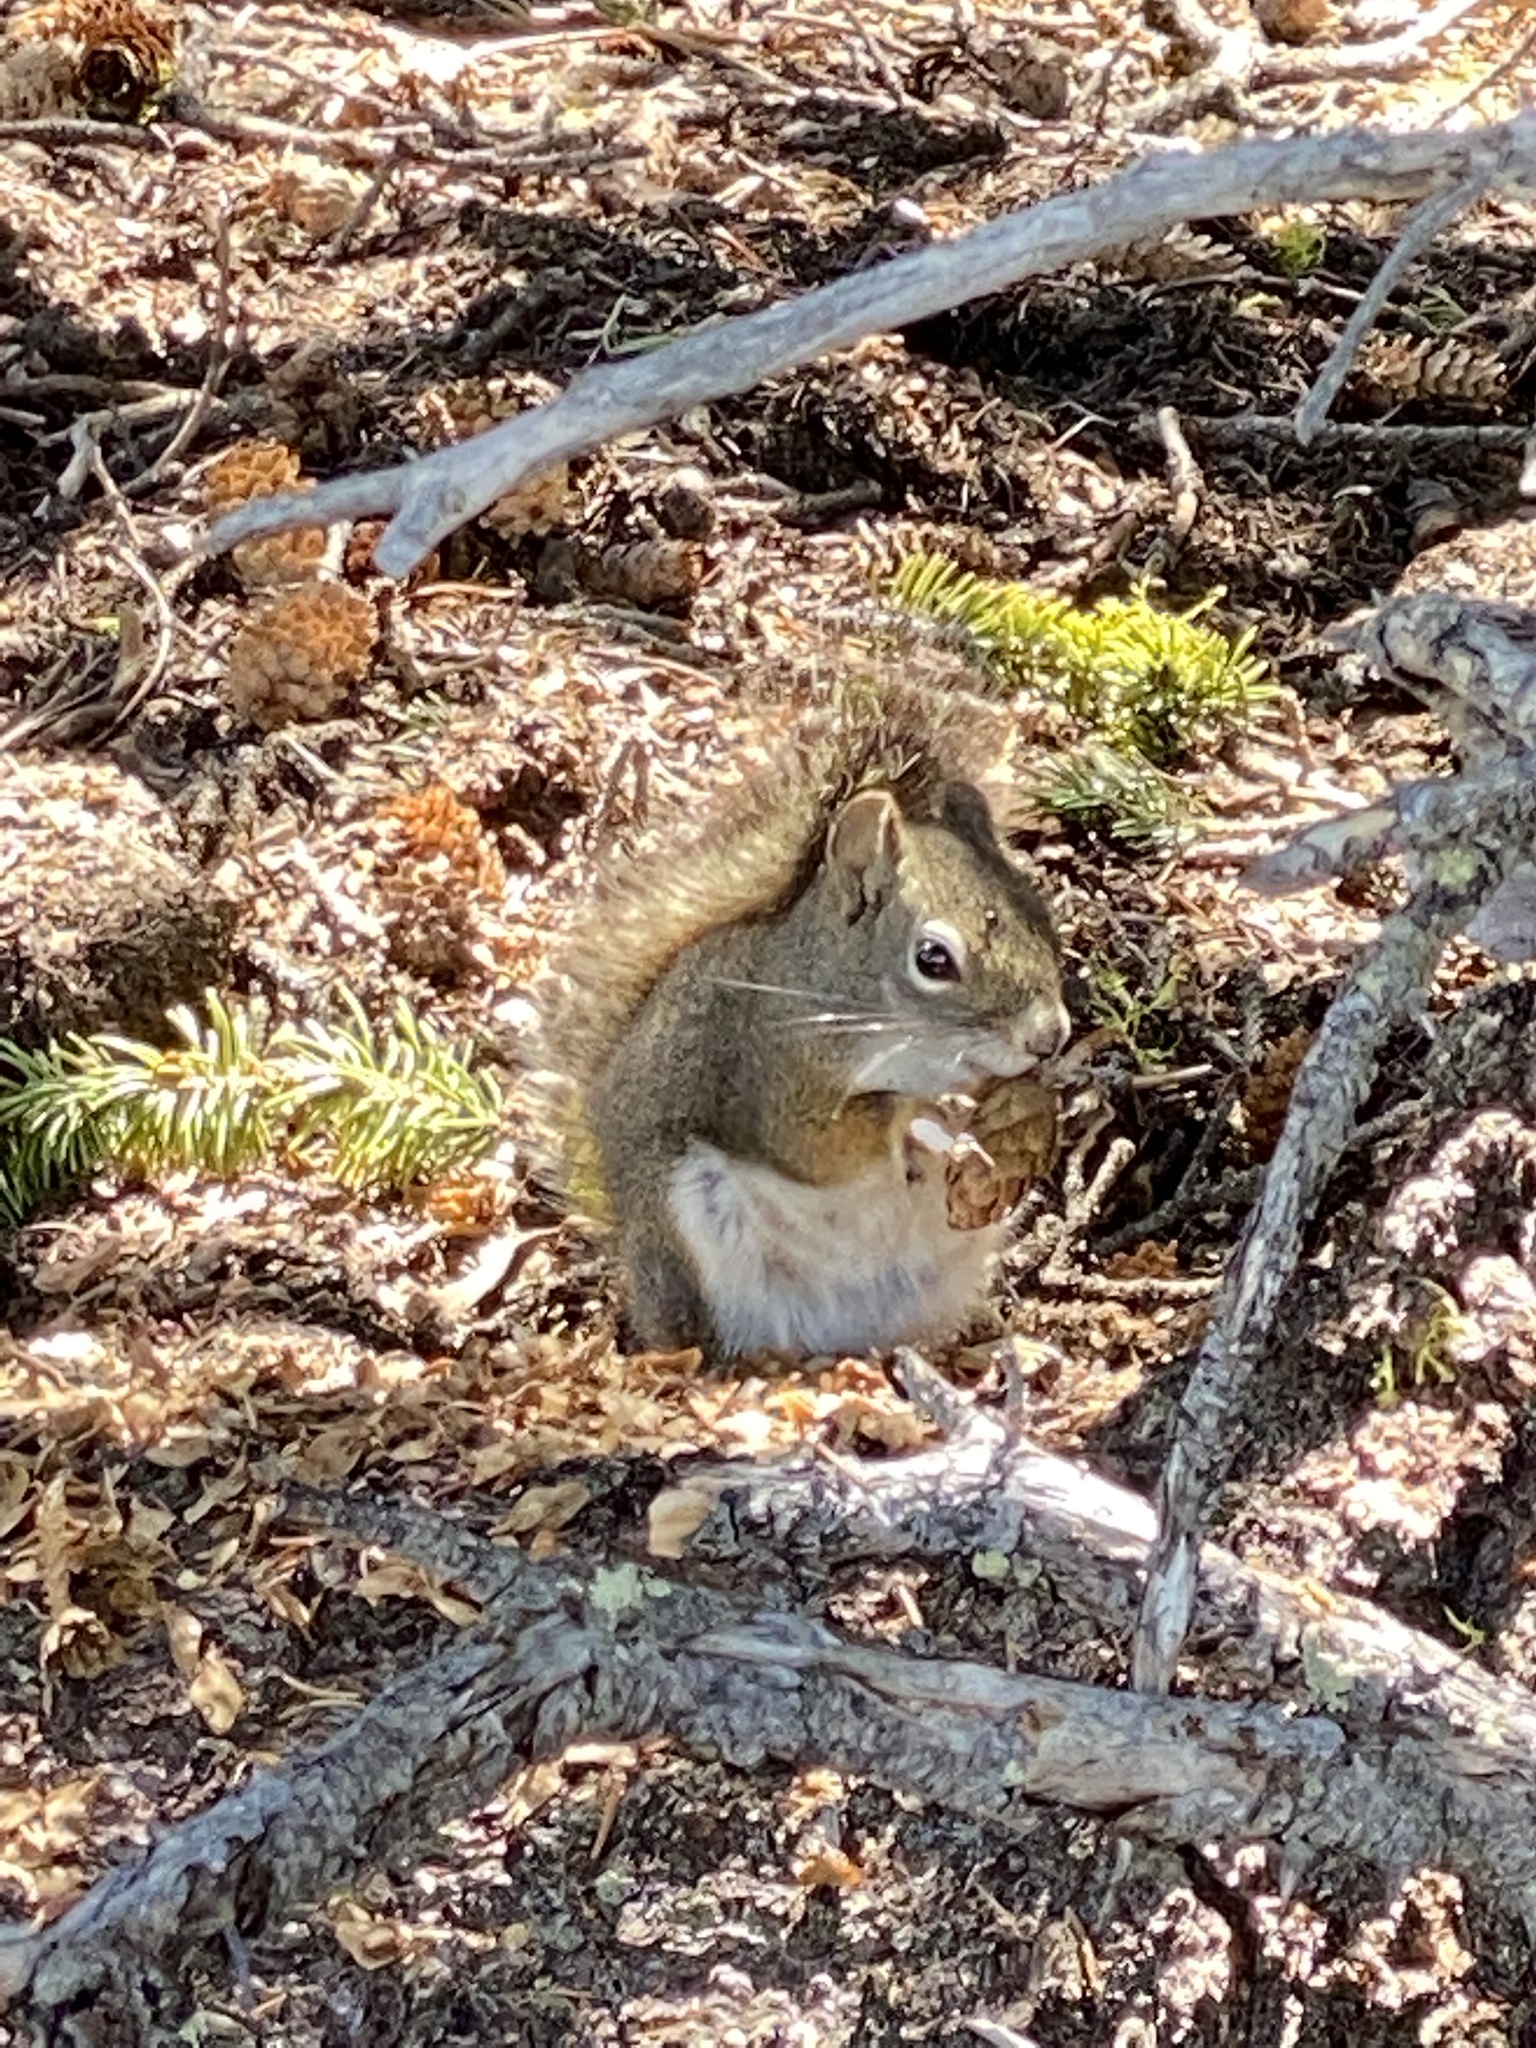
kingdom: Animalia
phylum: Chordata
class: Mammalia
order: Rodentia
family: Sciuridae
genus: Tamiasciurus
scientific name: Tamiasciurus hudsonicus
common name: Red squirrel
